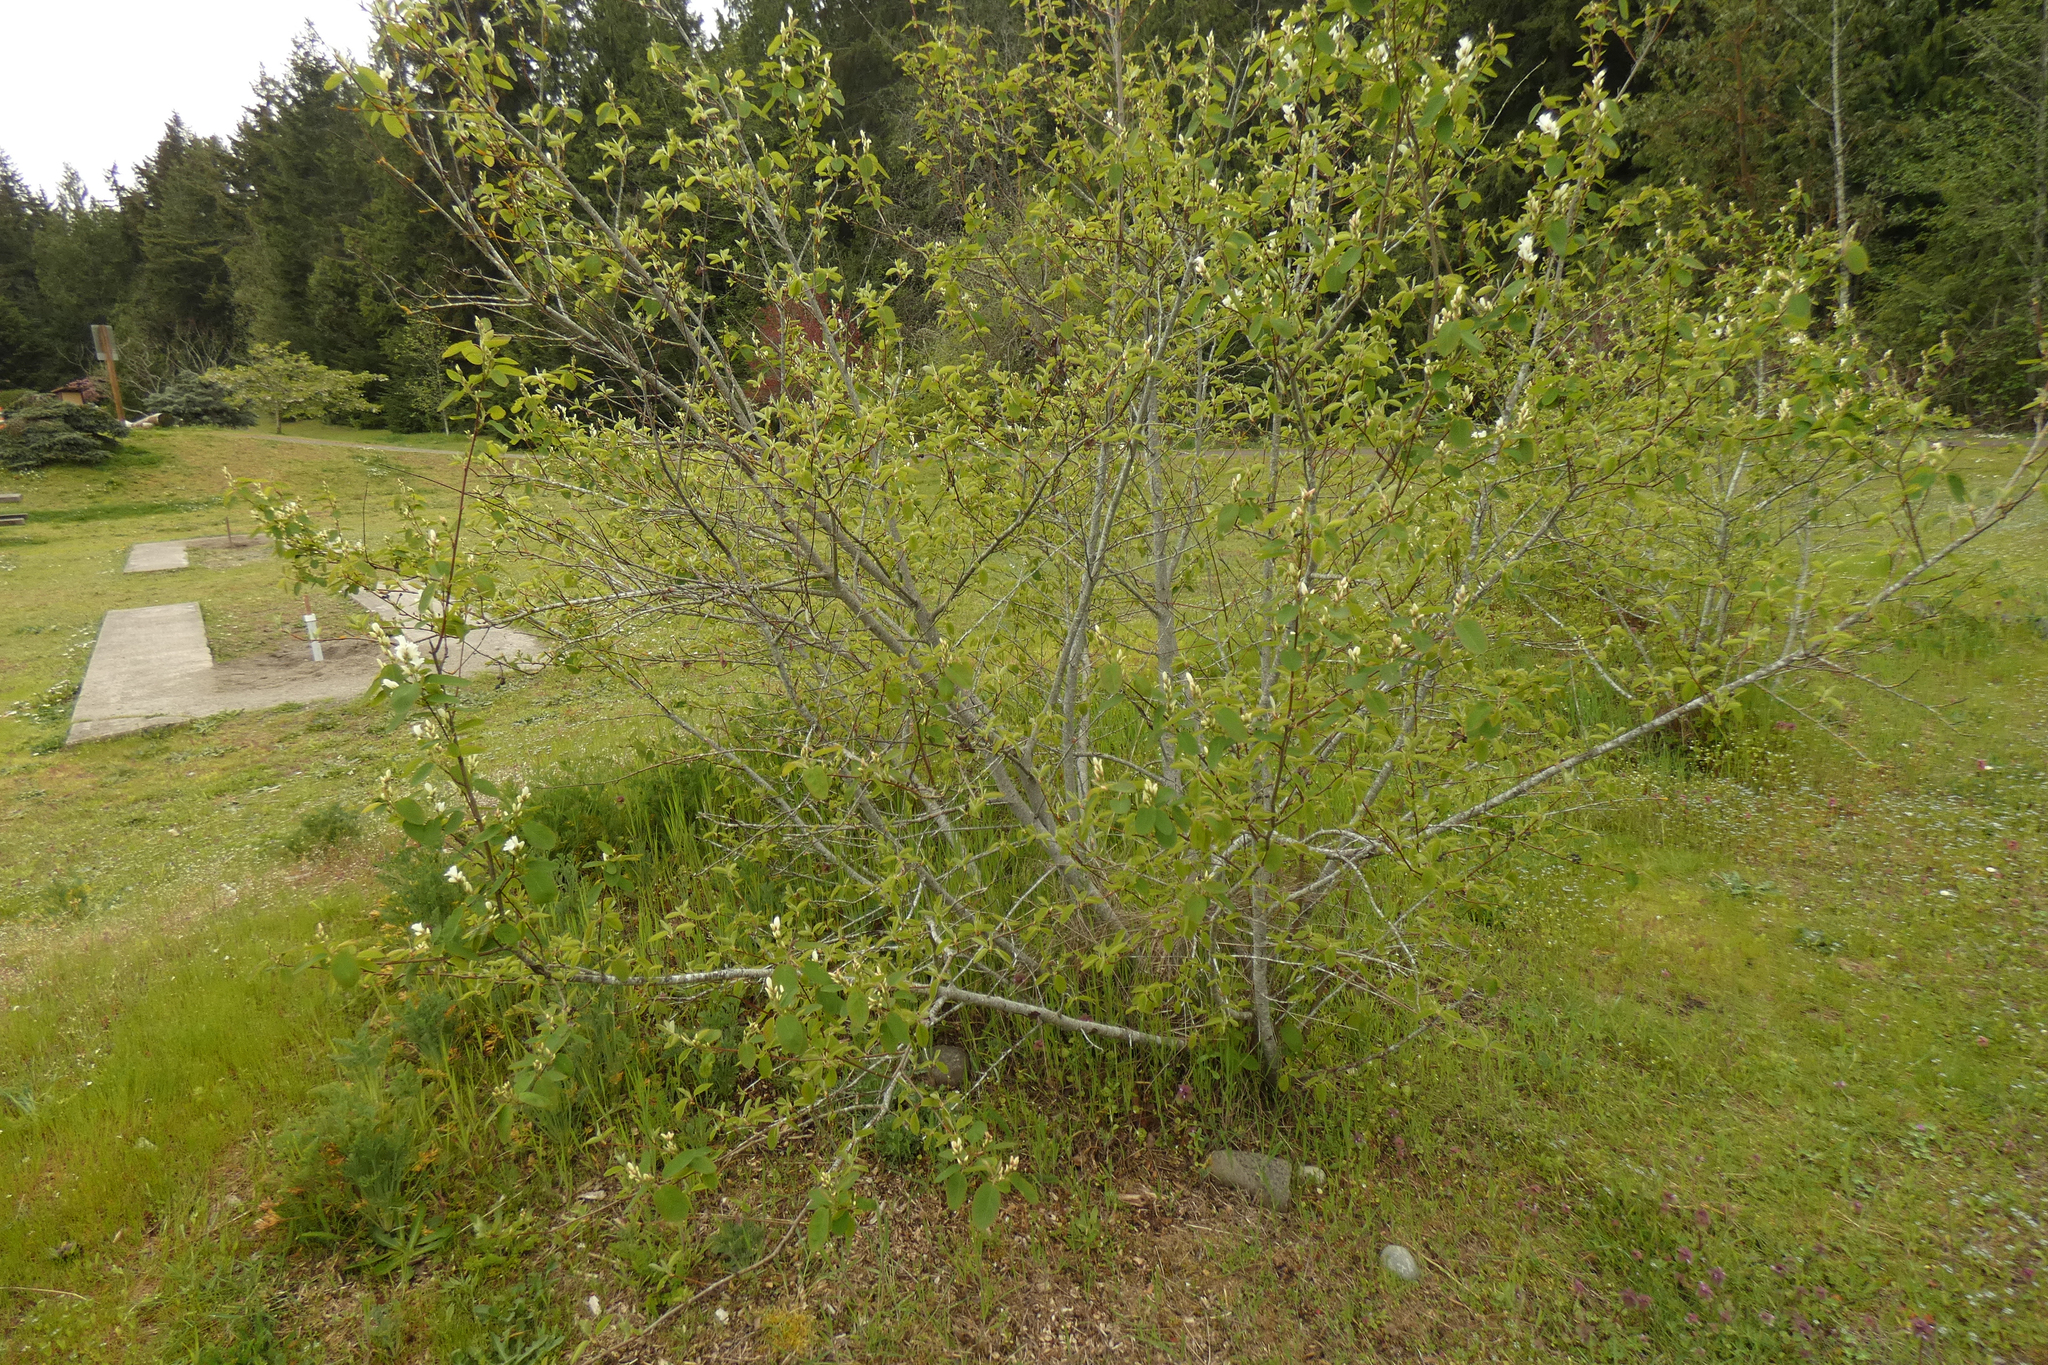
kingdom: Plantae
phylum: Tracheophyta
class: Magnoliopsida
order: Rosales
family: Rosaceae
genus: Amelanchier
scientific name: Amelanchier alnifolia
